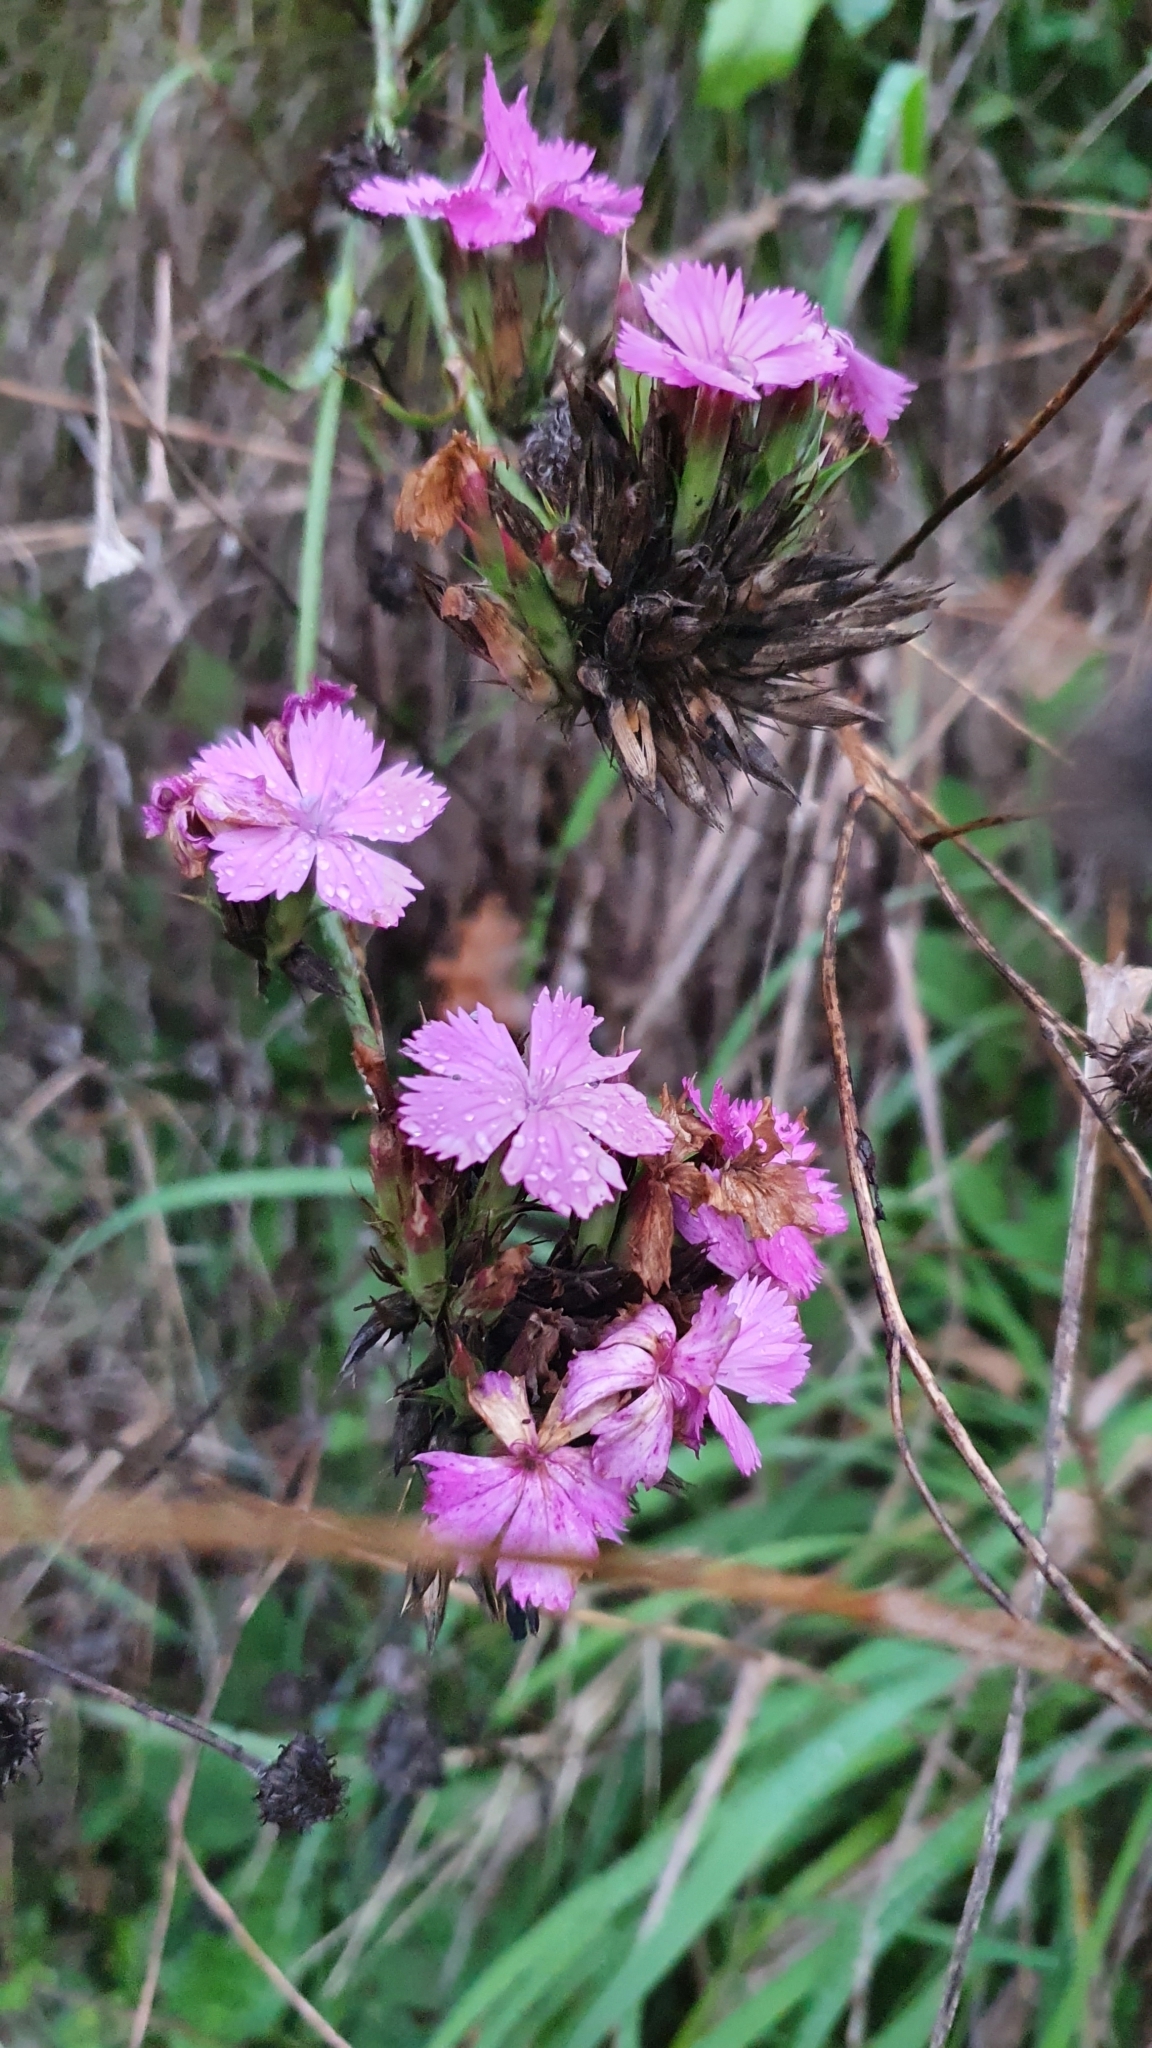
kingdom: Plantae
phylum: Tracheophyta
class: Magnoliopsida
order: Caryophyllales
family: Caryophyllaceae
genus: Dianthus
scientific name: Dianthus balbisii
